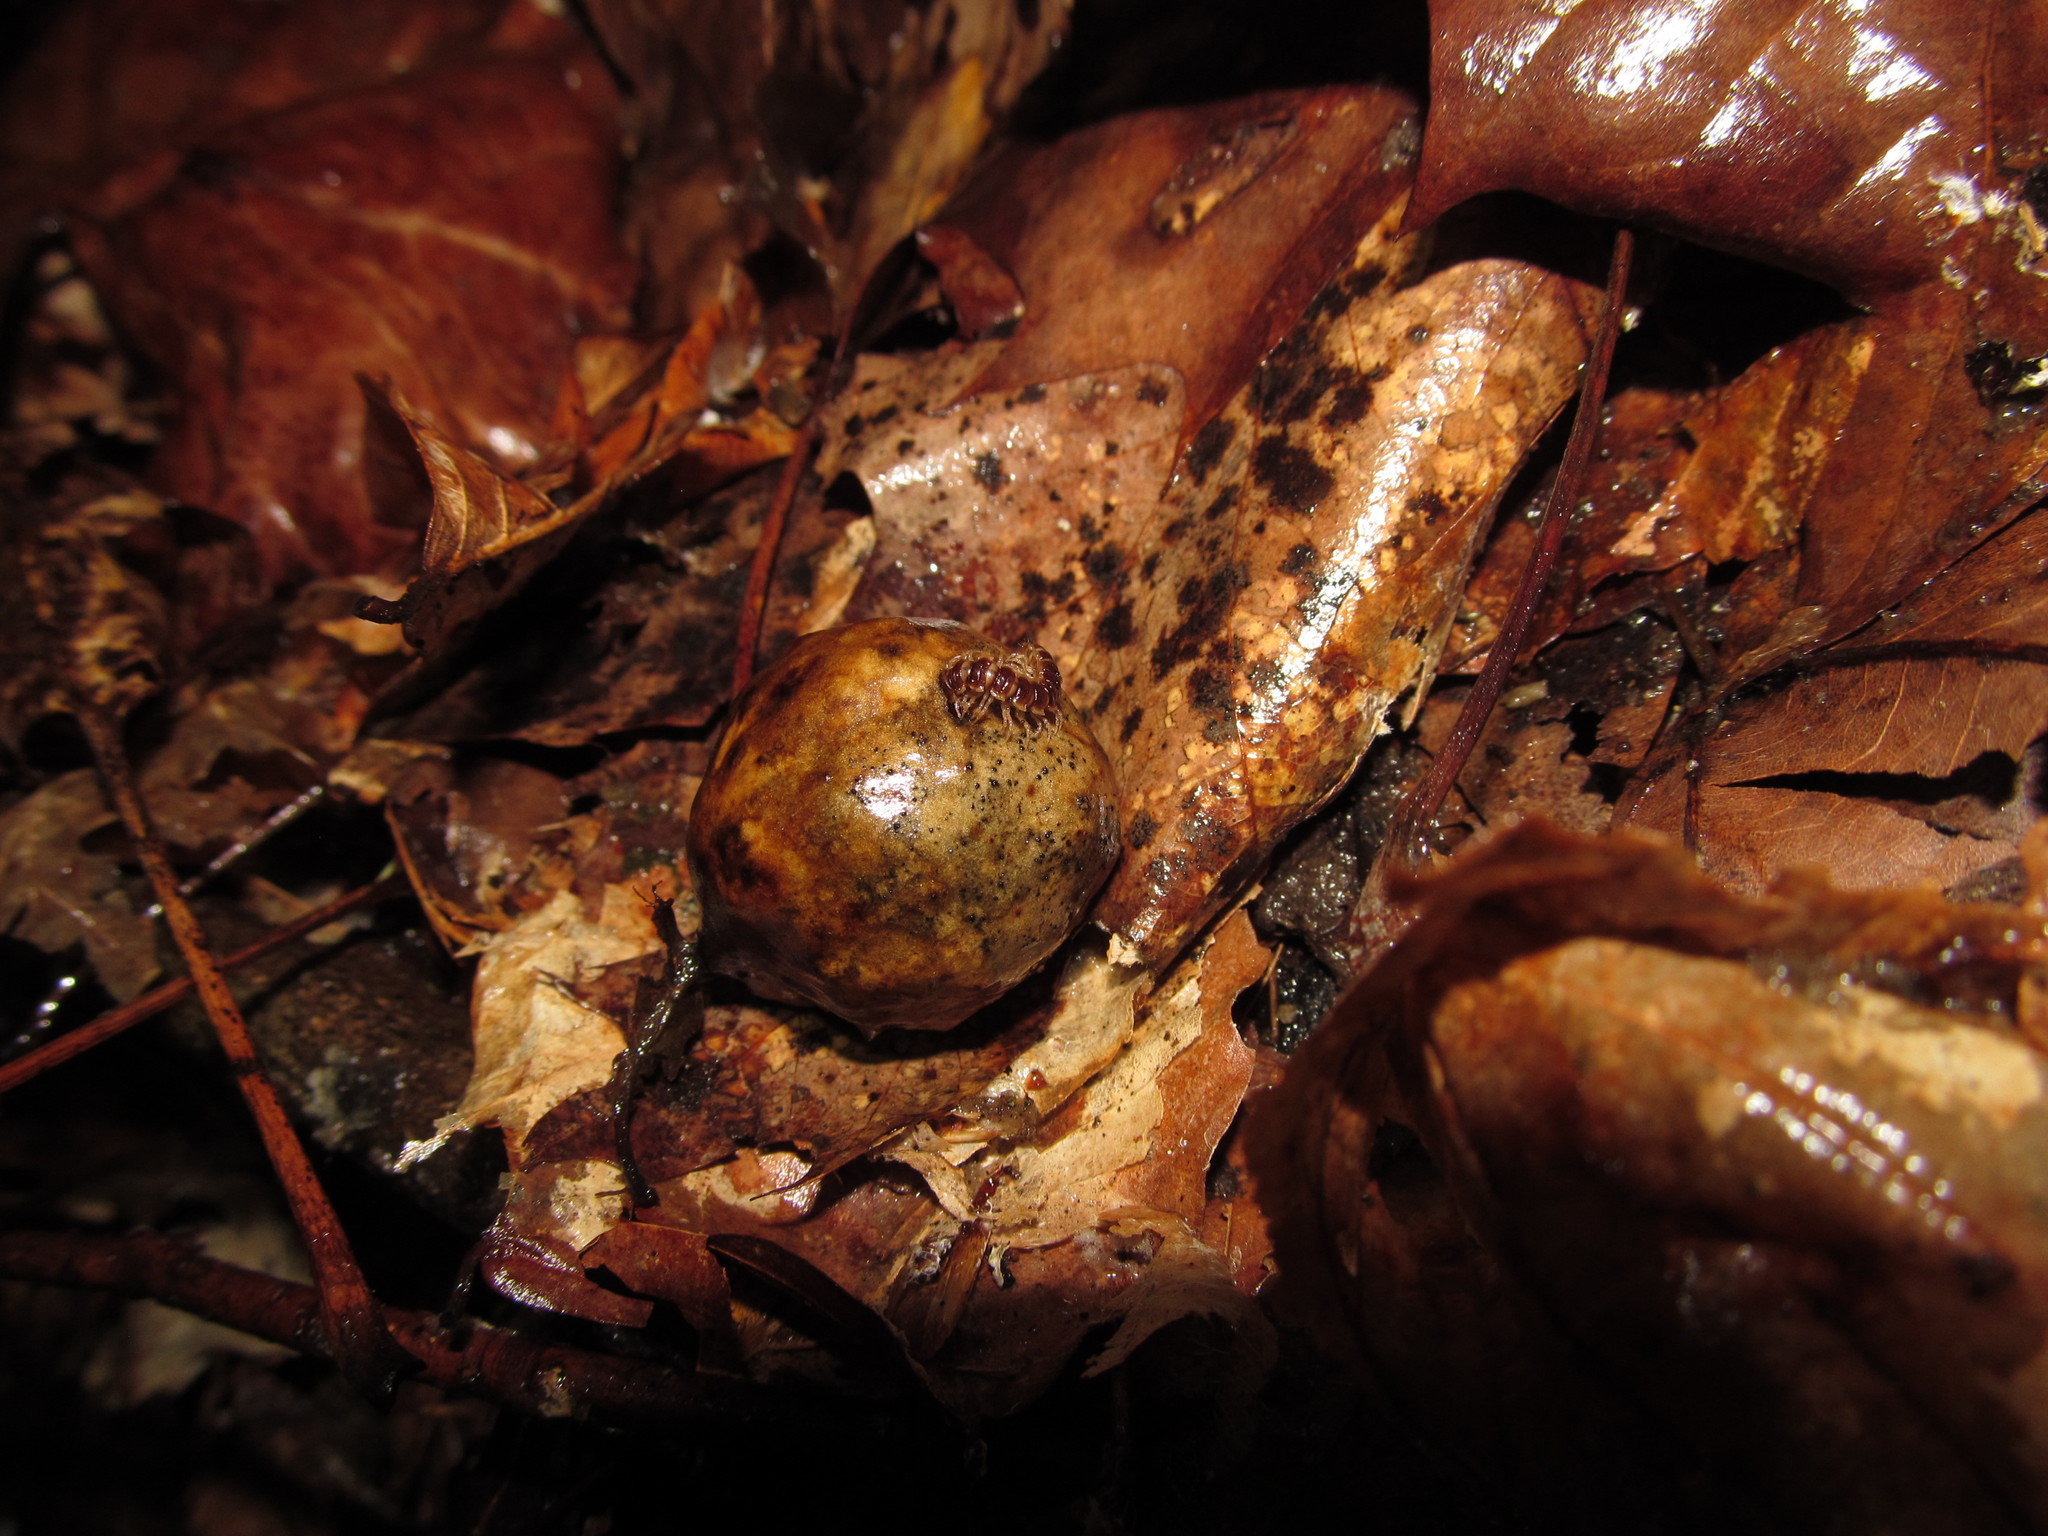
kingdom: Animalia
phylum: Arthropoda
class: Diplopoda
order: Polydesmida
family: Paradoxosomatidae
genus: Oxidus
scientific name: Oxidus gracilis
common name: Greenhouse millipede
